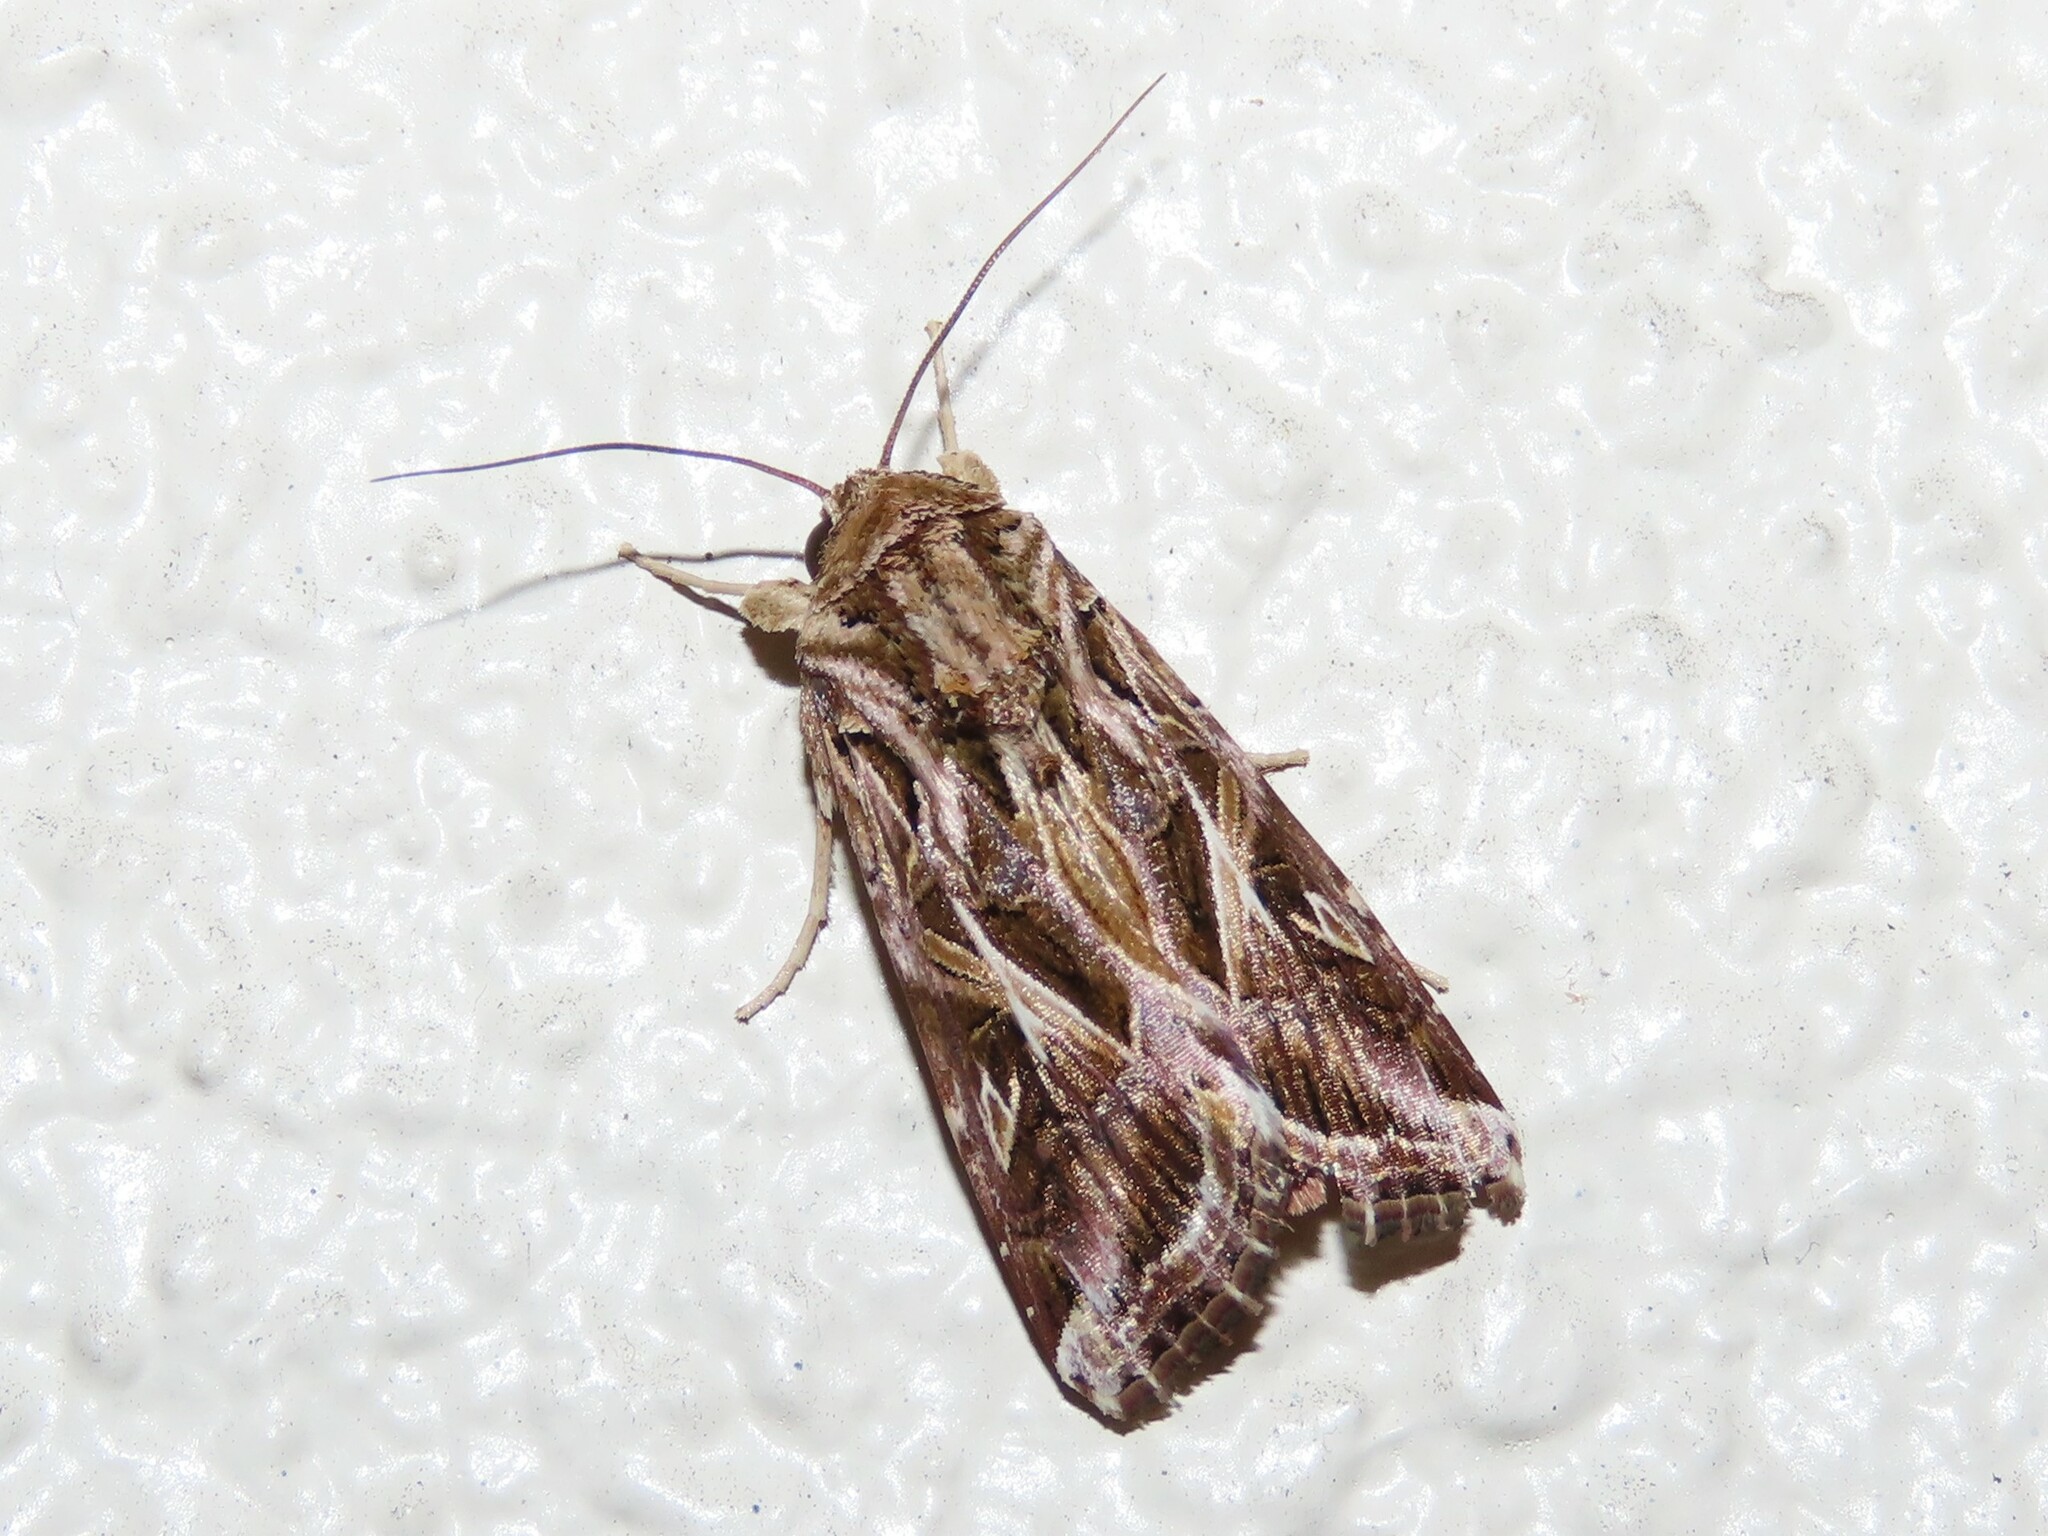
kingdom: Animalia
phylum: Arthropoda
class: Insecta
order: Lepidoptera
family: Noctuidae
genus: Spodoptera
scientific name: Spodoptera ornithogalli
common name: Yellow-striped armyworm
